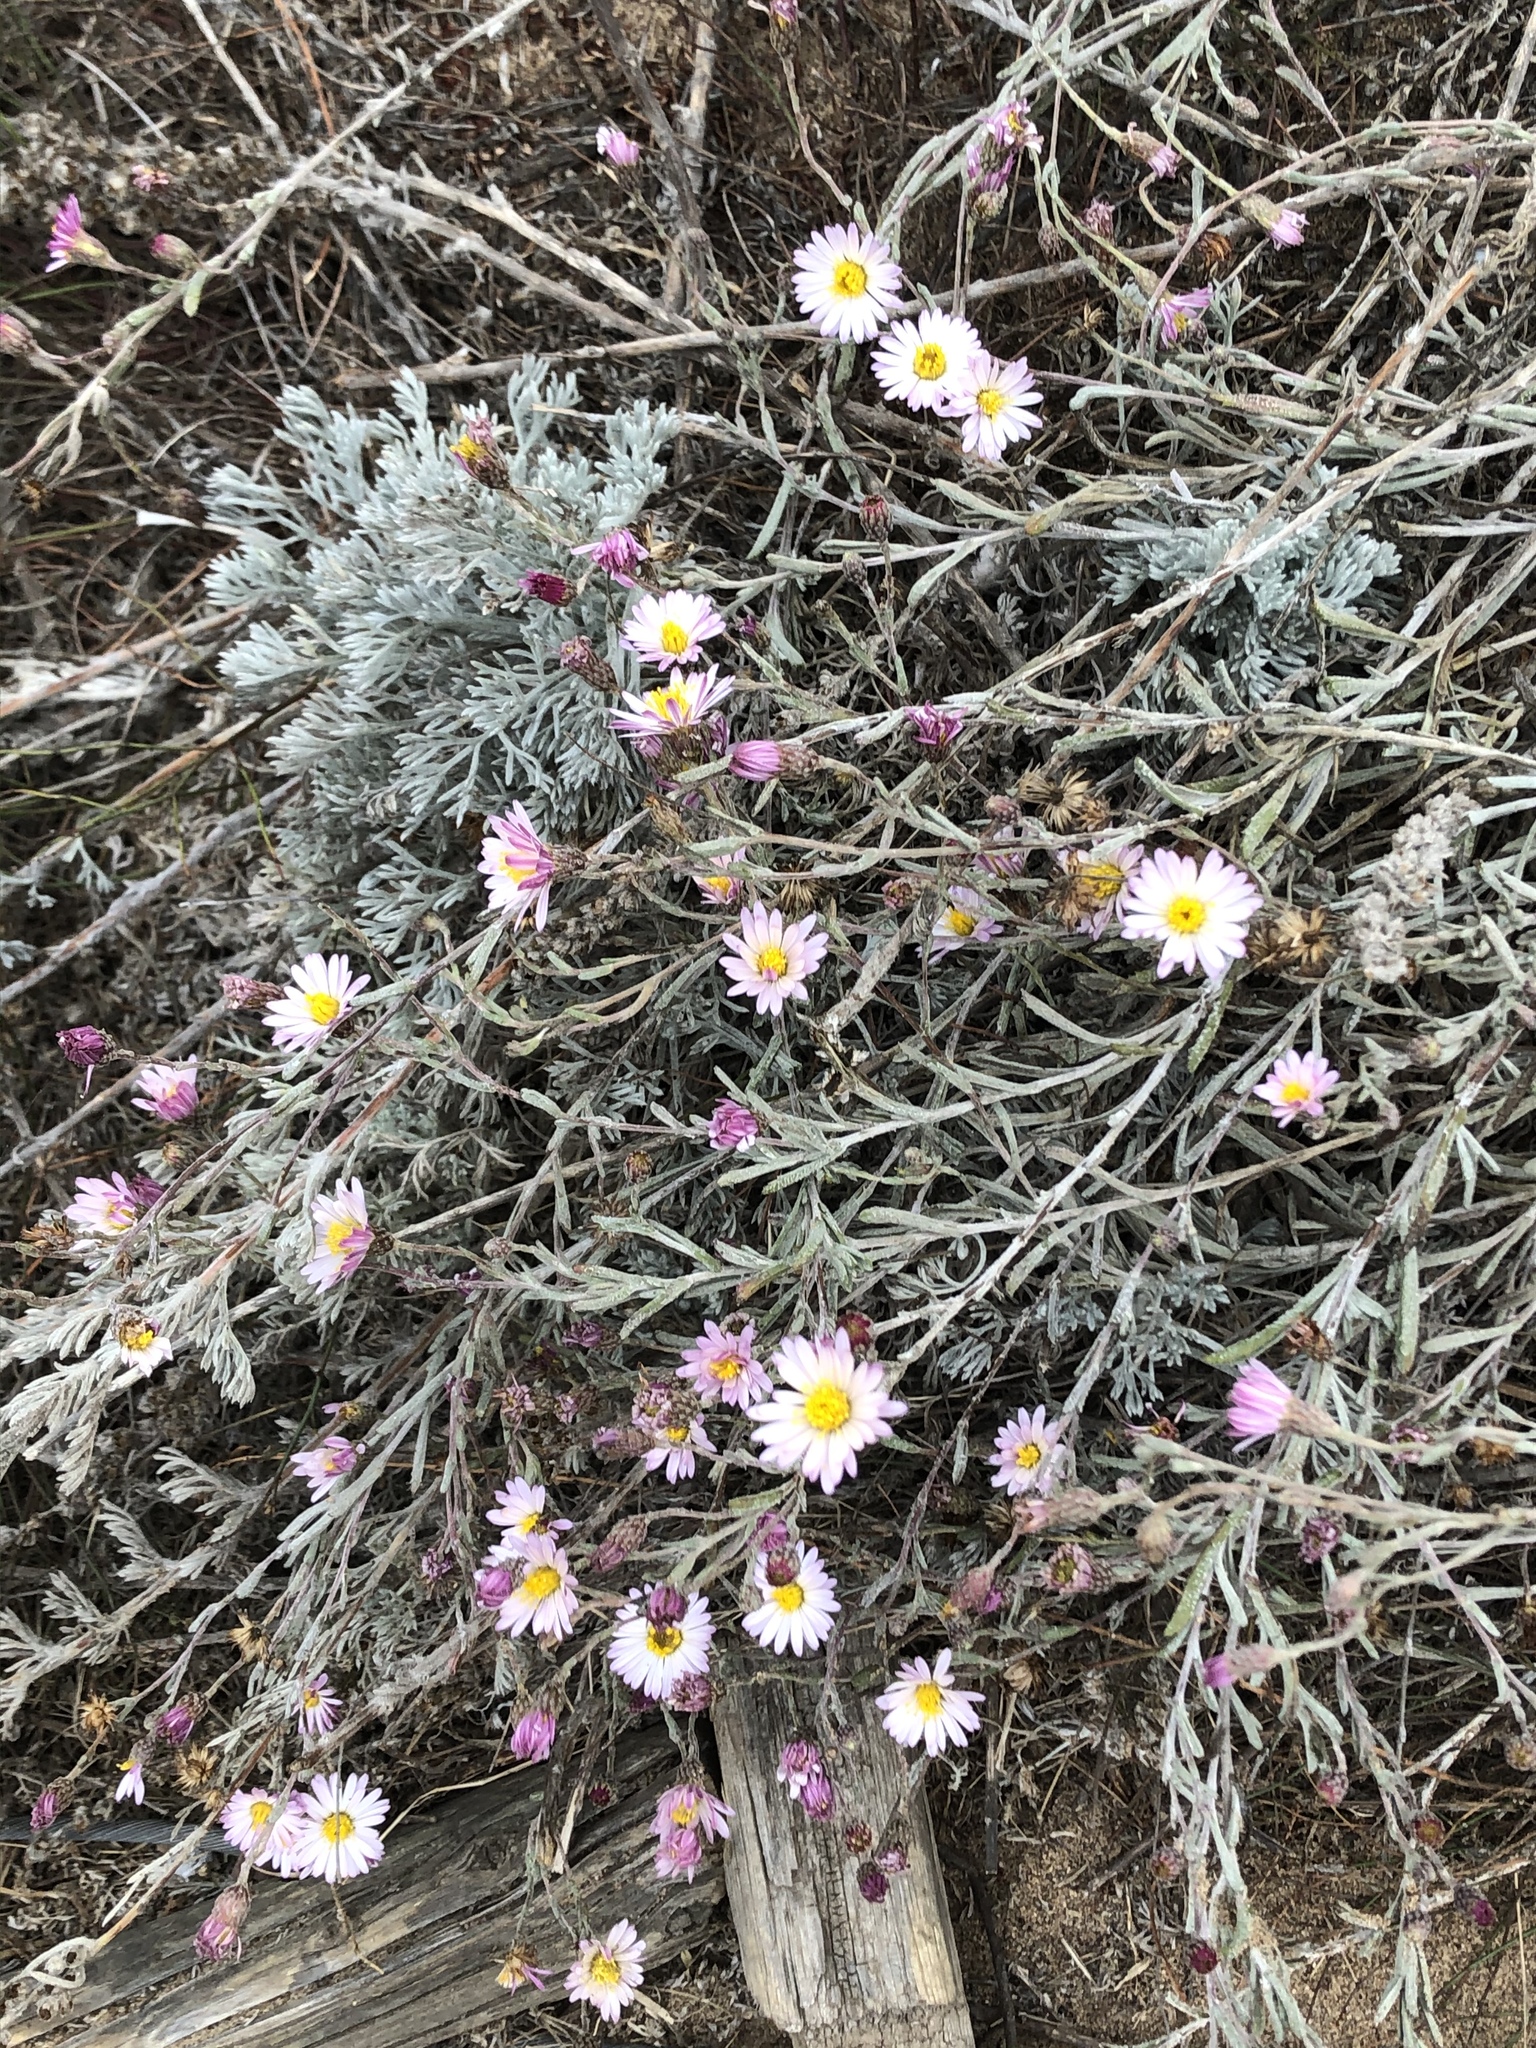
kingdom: Plantae
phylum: Tracheophyta
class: Magnoliopsida
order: Asterales
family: Asteraceae
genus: Corethrogyne
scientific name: Corethrogyne filaginifolia
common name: Sand-aster
